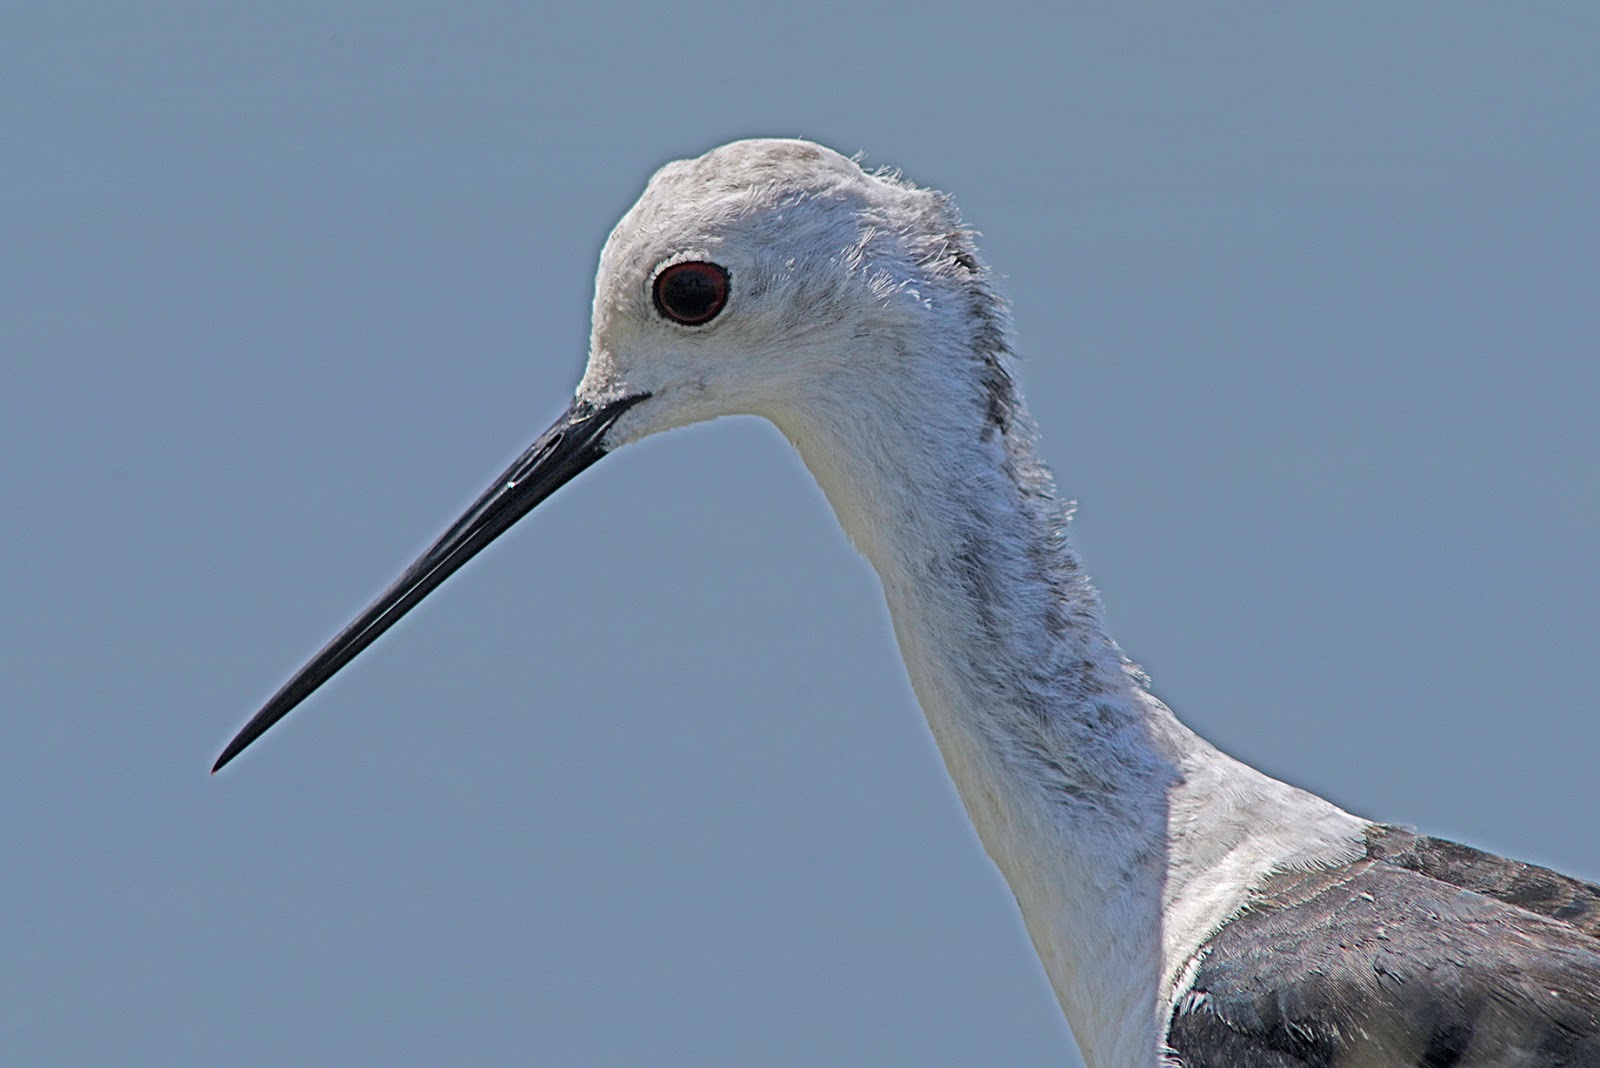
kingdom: Animalia
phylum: Chordata
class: Aves
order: Charadriiformes
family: Recurvirostridae
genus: Himantopus
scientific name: Himantopus himantopus
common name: Black-winged stilt
